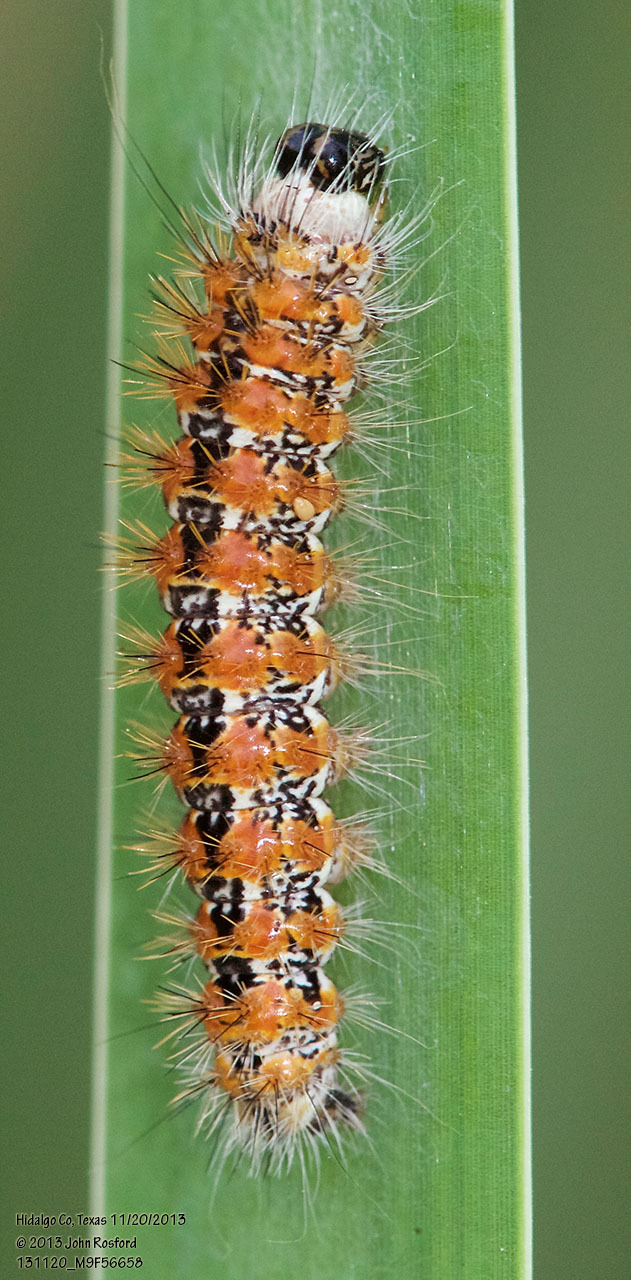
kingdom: Animalia
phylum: Arthropoda
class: Insecta
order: Lepidoptera
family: Noctuidae
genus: Acronicta
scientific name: Acronicta insularis
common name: Henry's marsh moth
